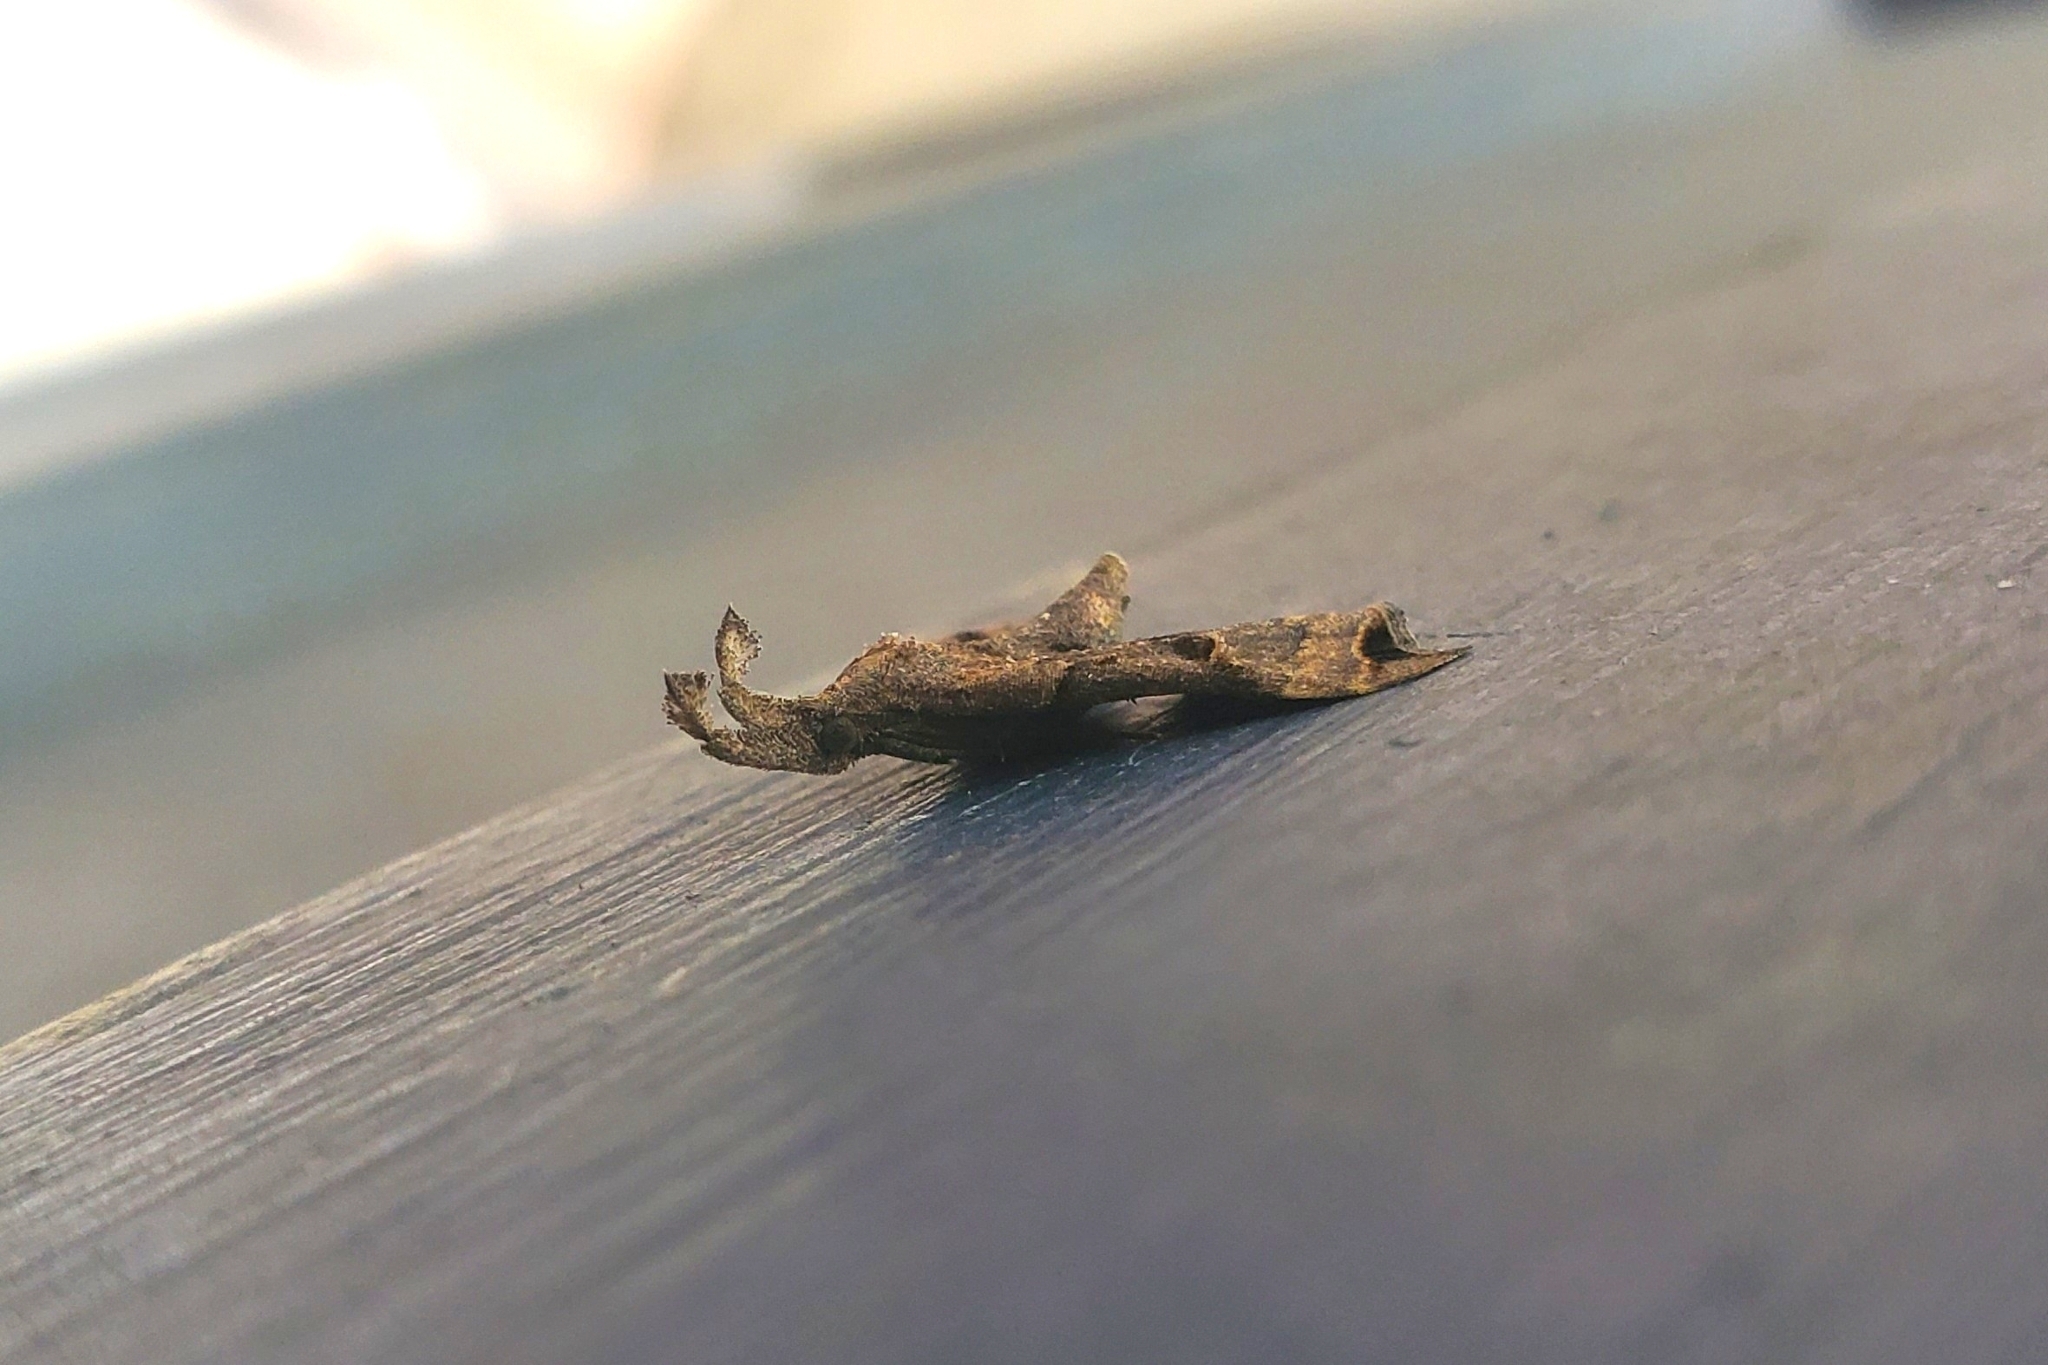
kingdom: Animalia
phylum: Arthropoda
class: Insecta
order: Lepidoptera
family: Erebidae
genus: Palthis
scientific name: Palthis asopialis
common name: Faint-spotted palthis moth
